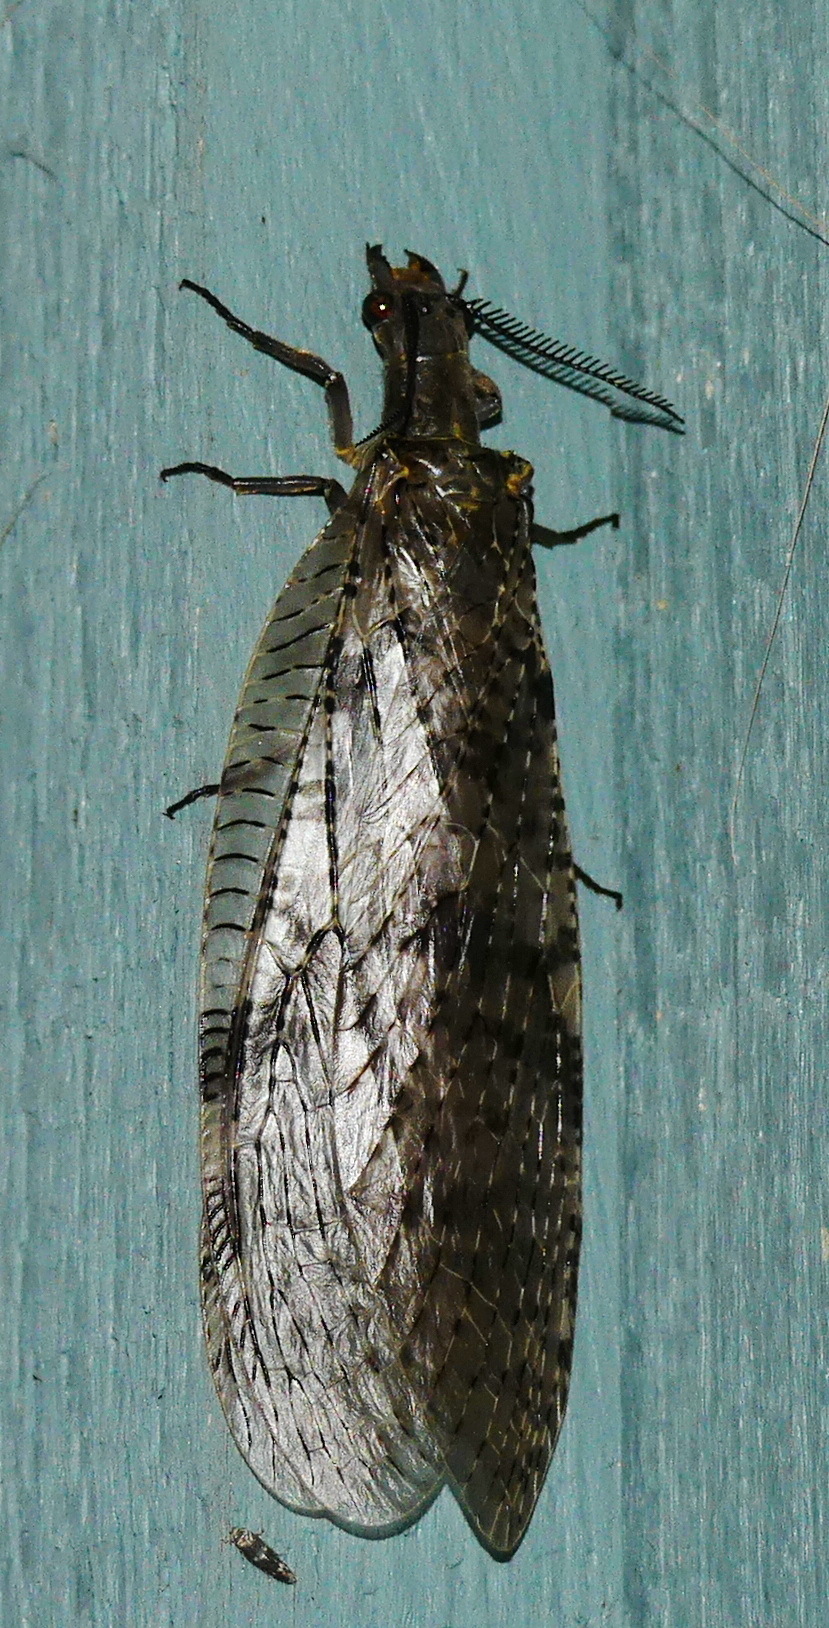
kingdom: Animalia
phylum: Arthropoda
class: Insecta
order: Megaloptera
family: Corydalidae
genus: Chauliodes
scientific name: Chauliodes rastricornis
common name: Spring fishfly
